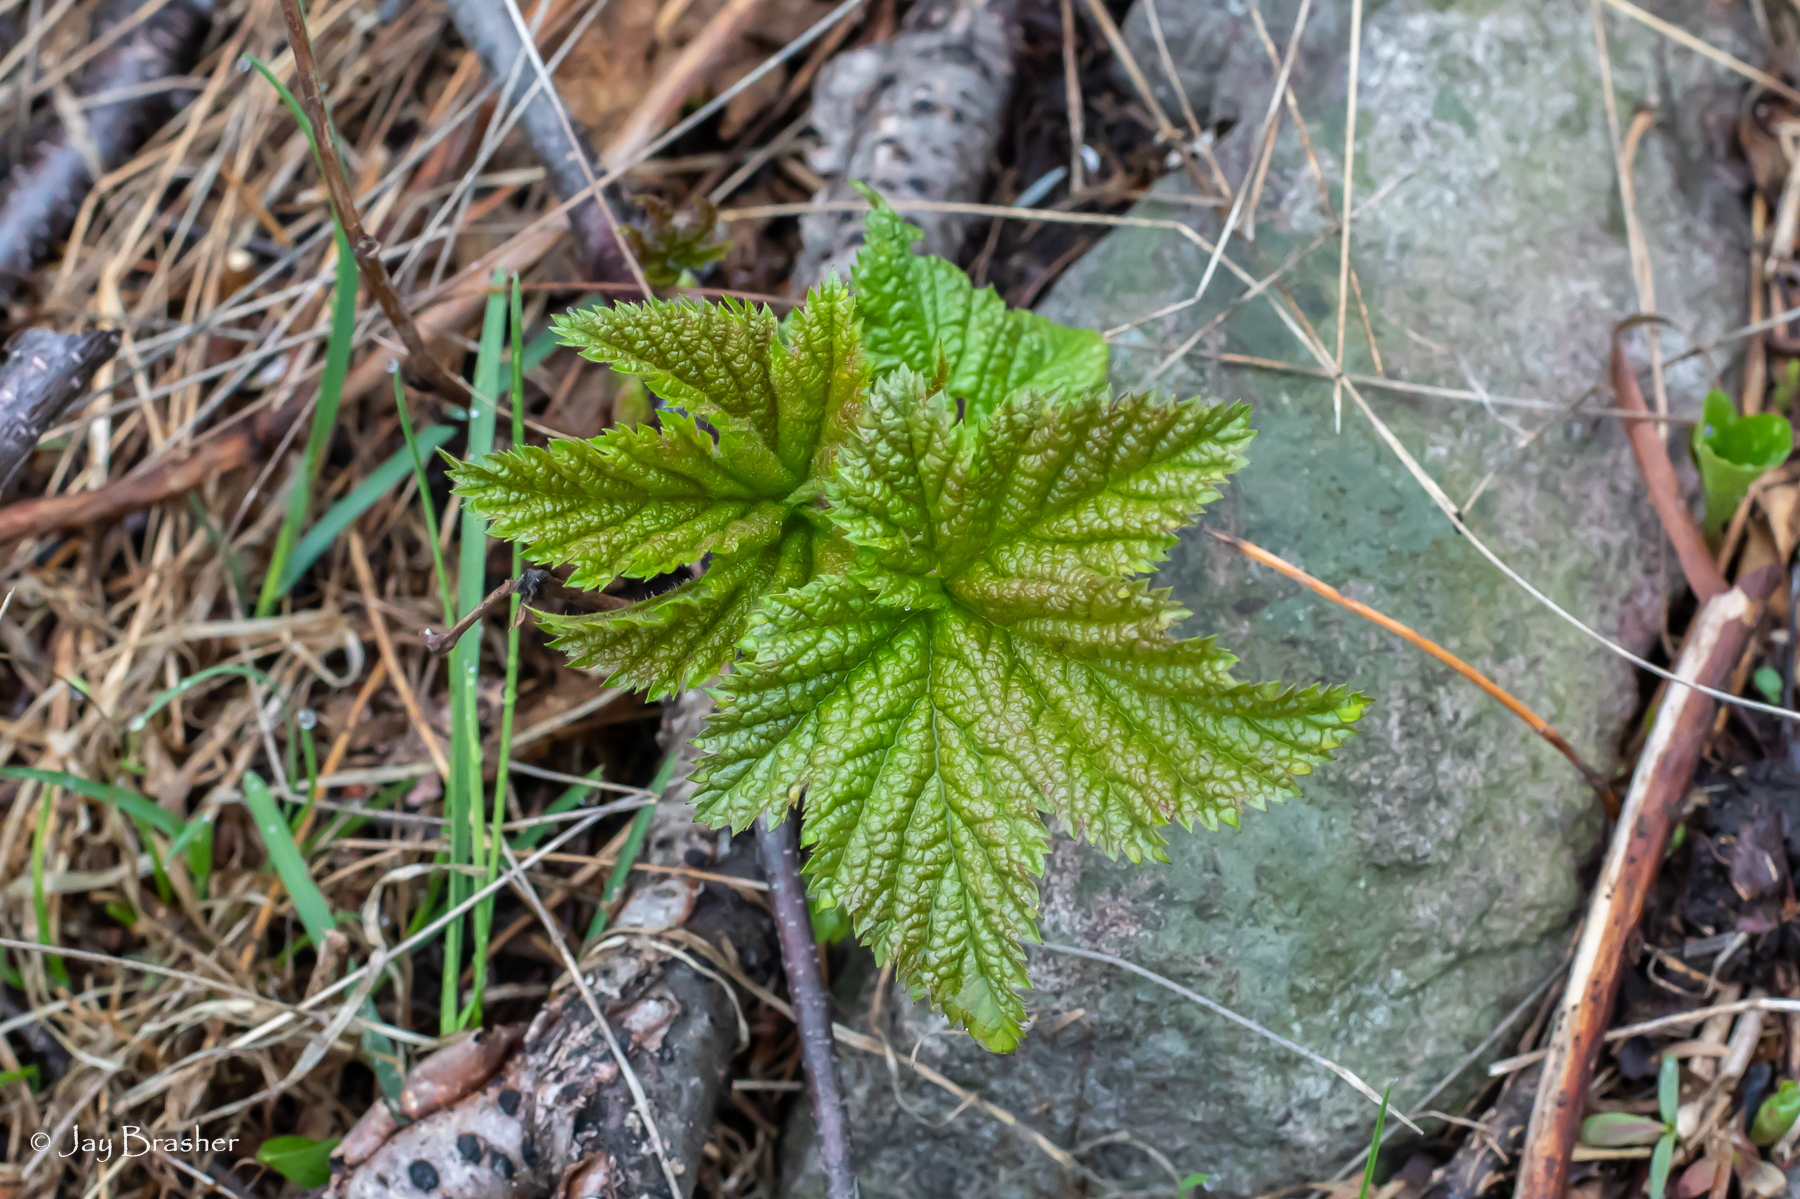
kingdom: Plantae
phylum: Tracheophyta
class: Magnoliopsida
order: Rosales
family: Rosaceae
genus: Rubus
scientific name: Rubus parviflorus
